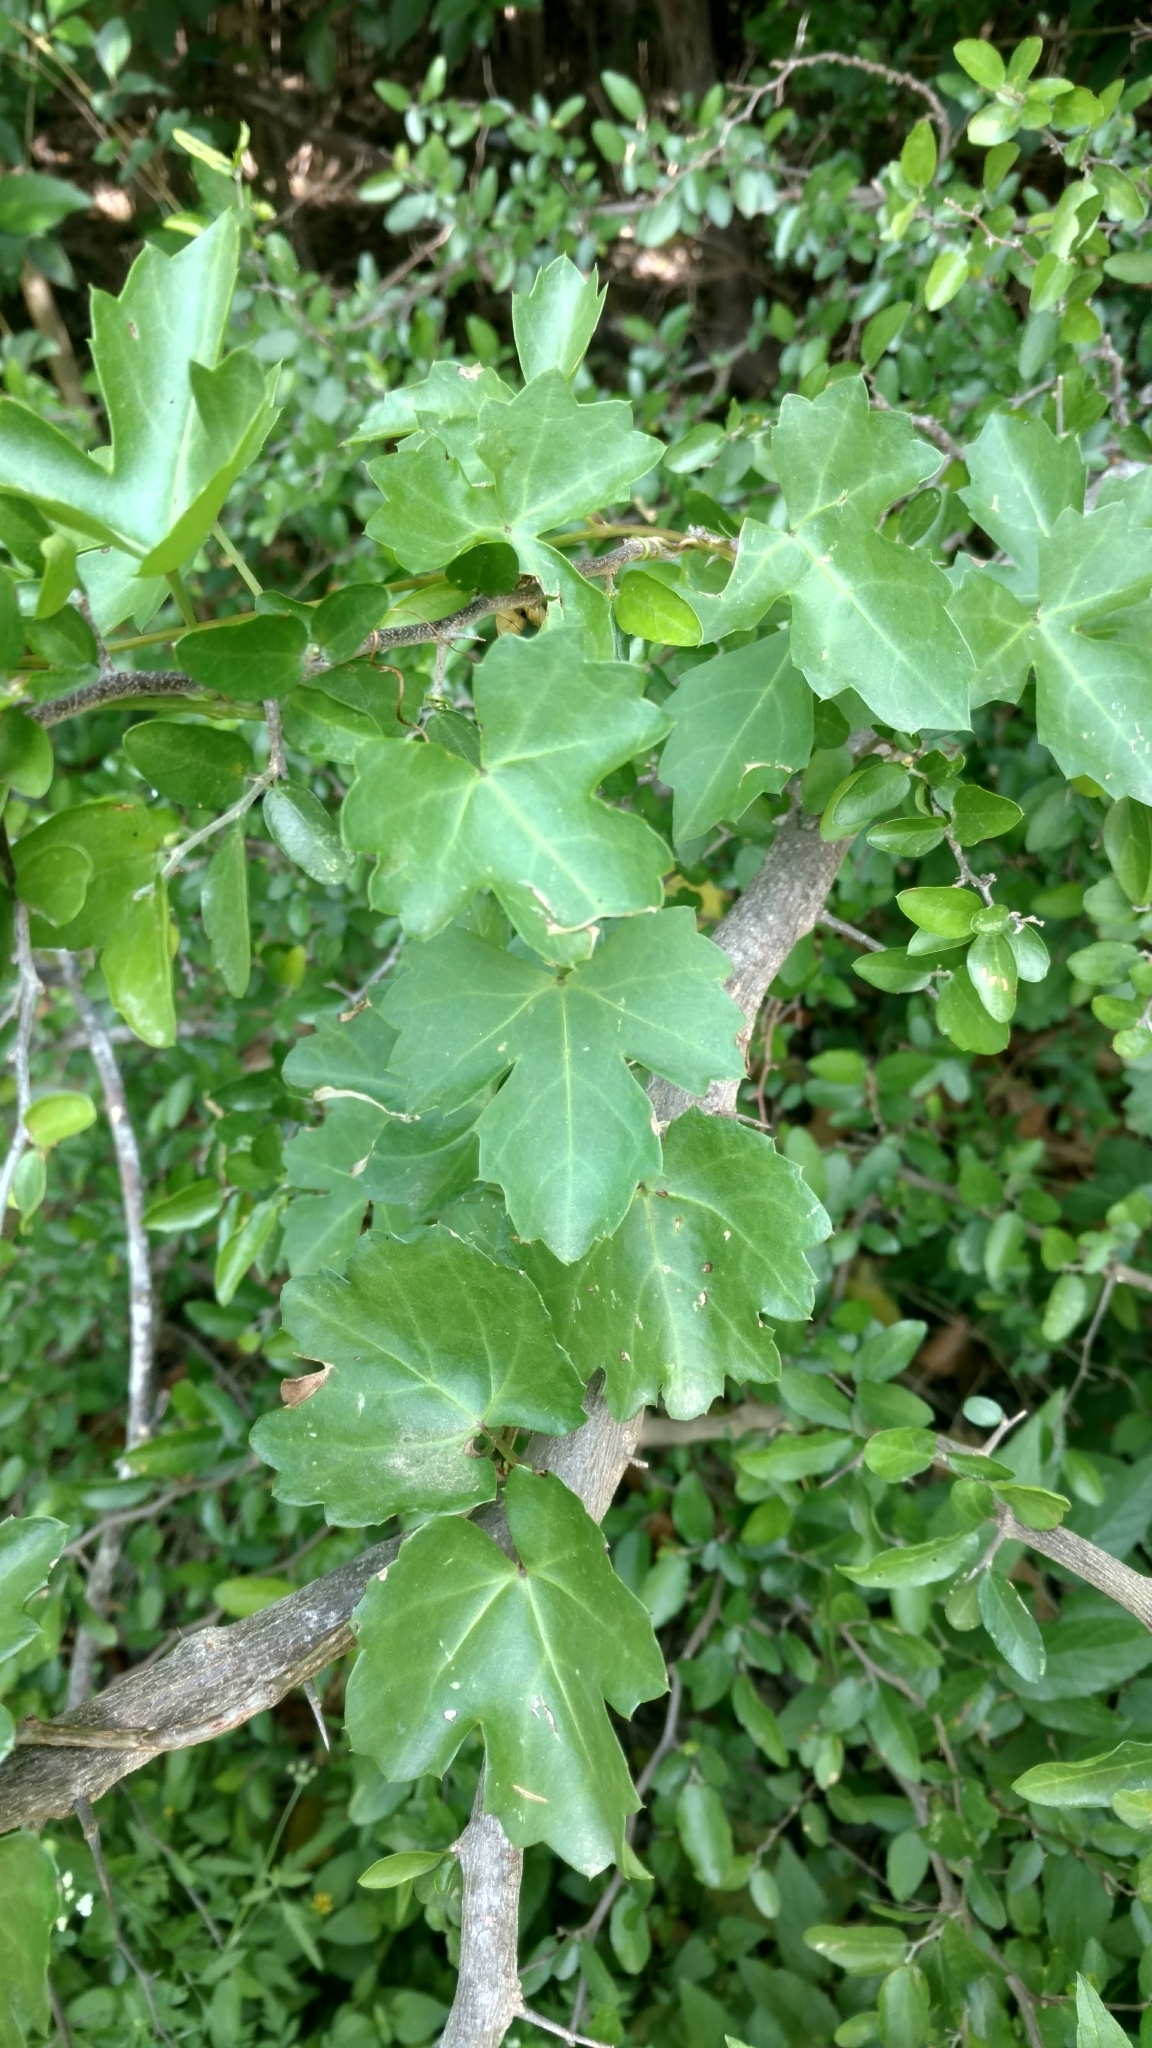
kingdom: Plantae
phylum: Tracheophyta
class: Magnoliopsida
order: Vitales
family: Vitaceae
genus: Cissus
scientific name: Cissus trifoliata
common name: Vine-sorrel
